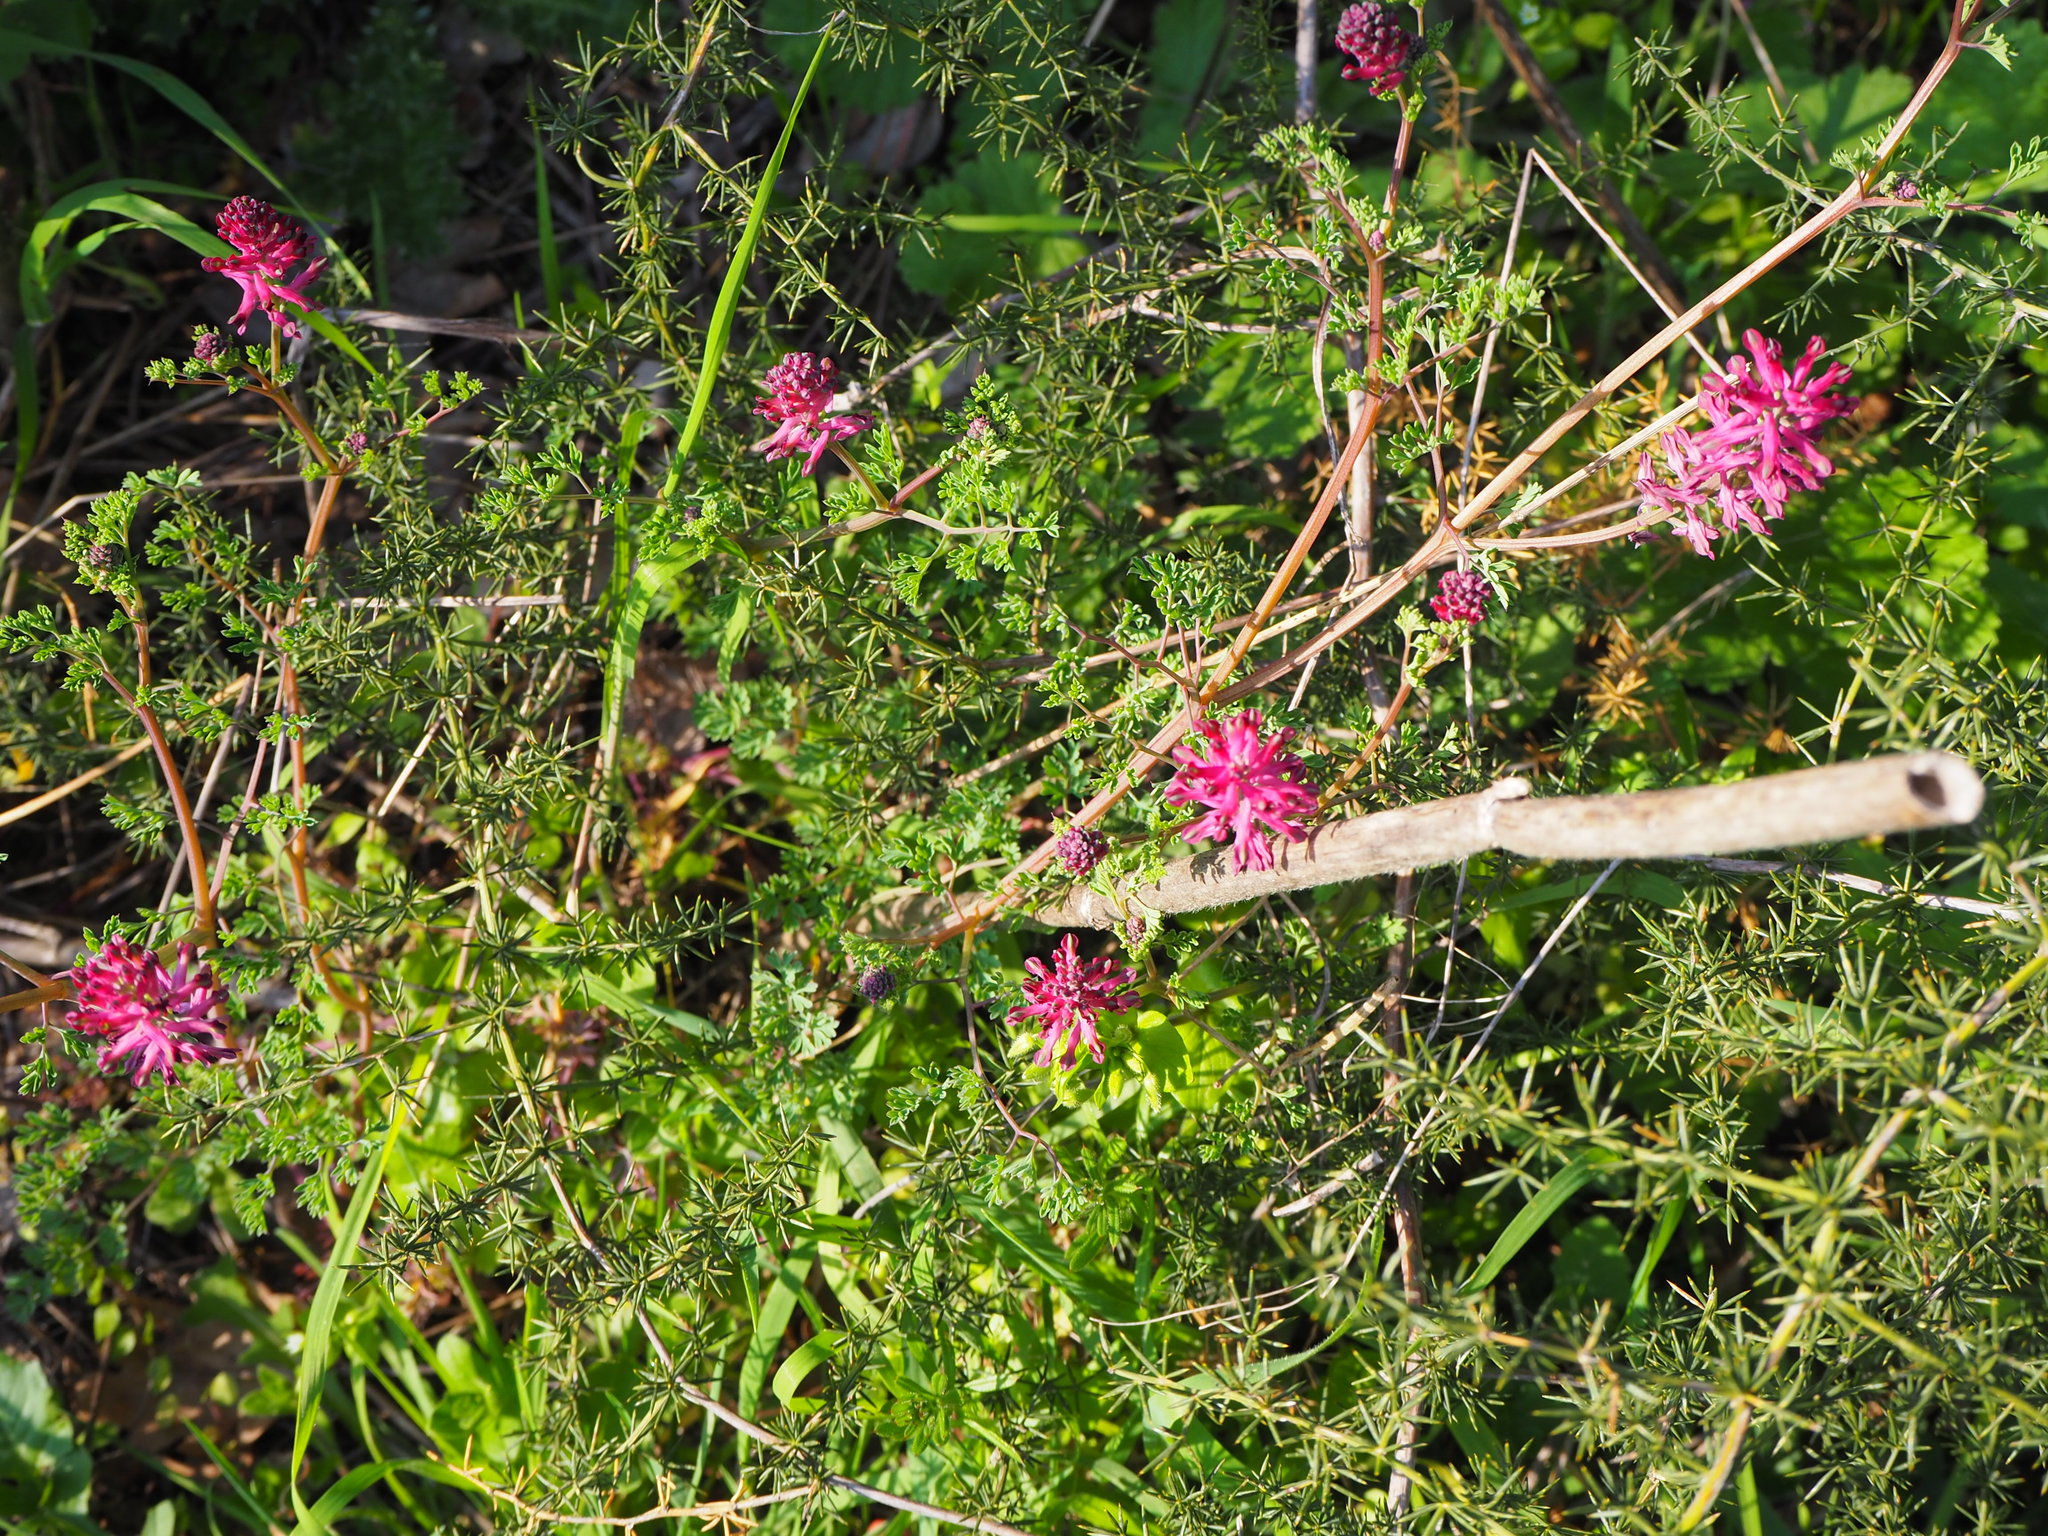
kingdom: Plantae
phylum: Tracheophyta
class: Magnoliopsida
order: Ranunculales
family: Papaveraceae
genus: Fumaria
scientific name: Fumaria officinalis
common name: Common fumitory
